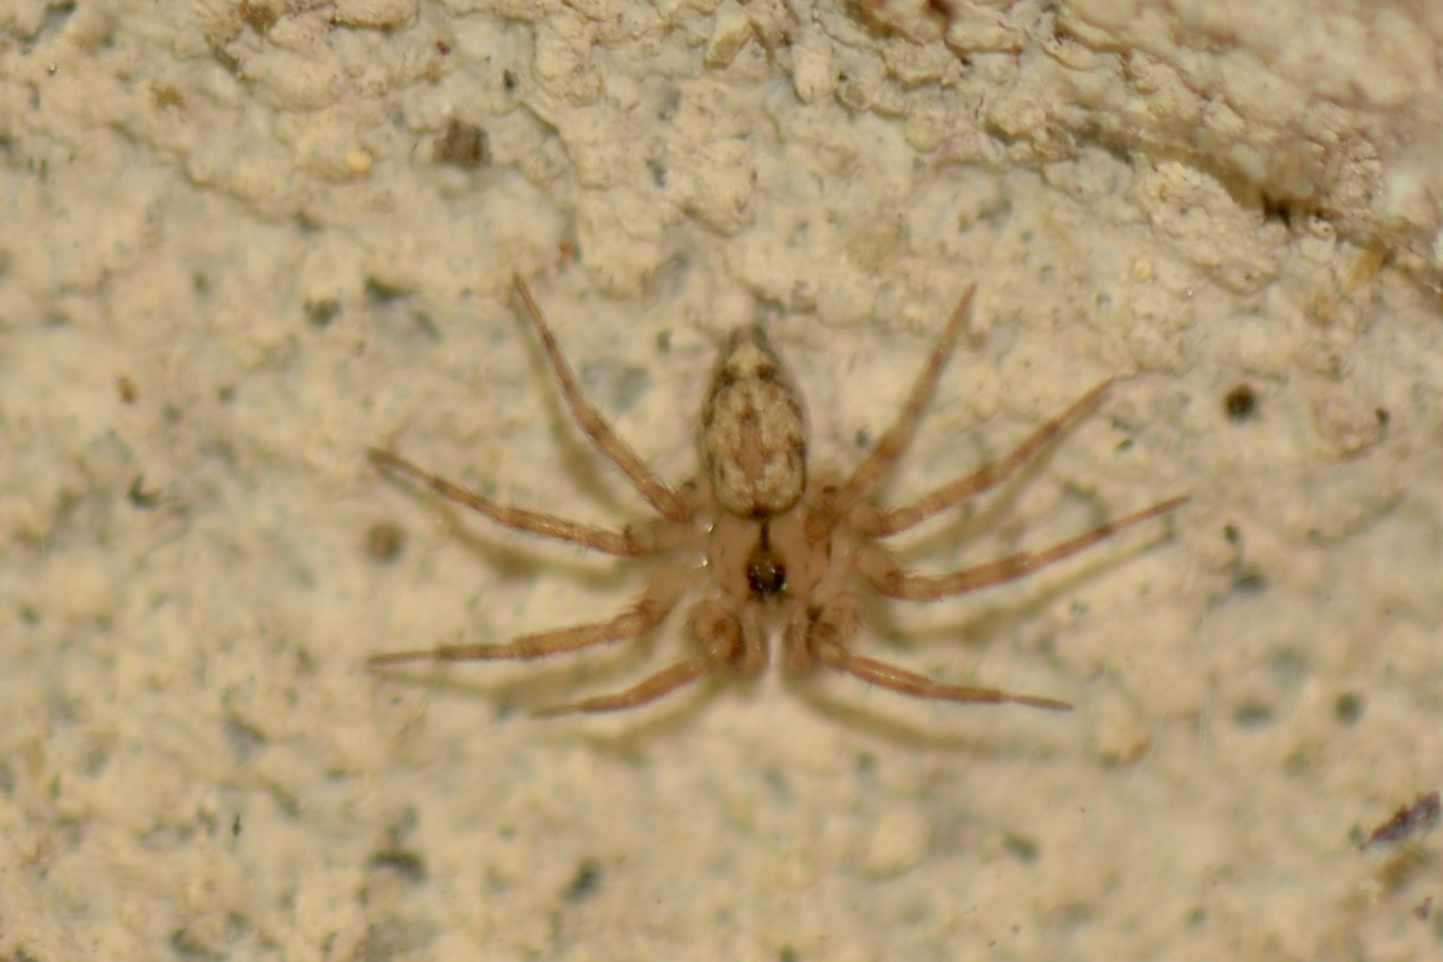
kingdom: Animalia
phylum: Arthropoda
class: Arachnida
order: Araneae
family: Oecobiidae
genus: Oecobius
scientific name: Oecobius navus
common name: Flatmesh weaver
